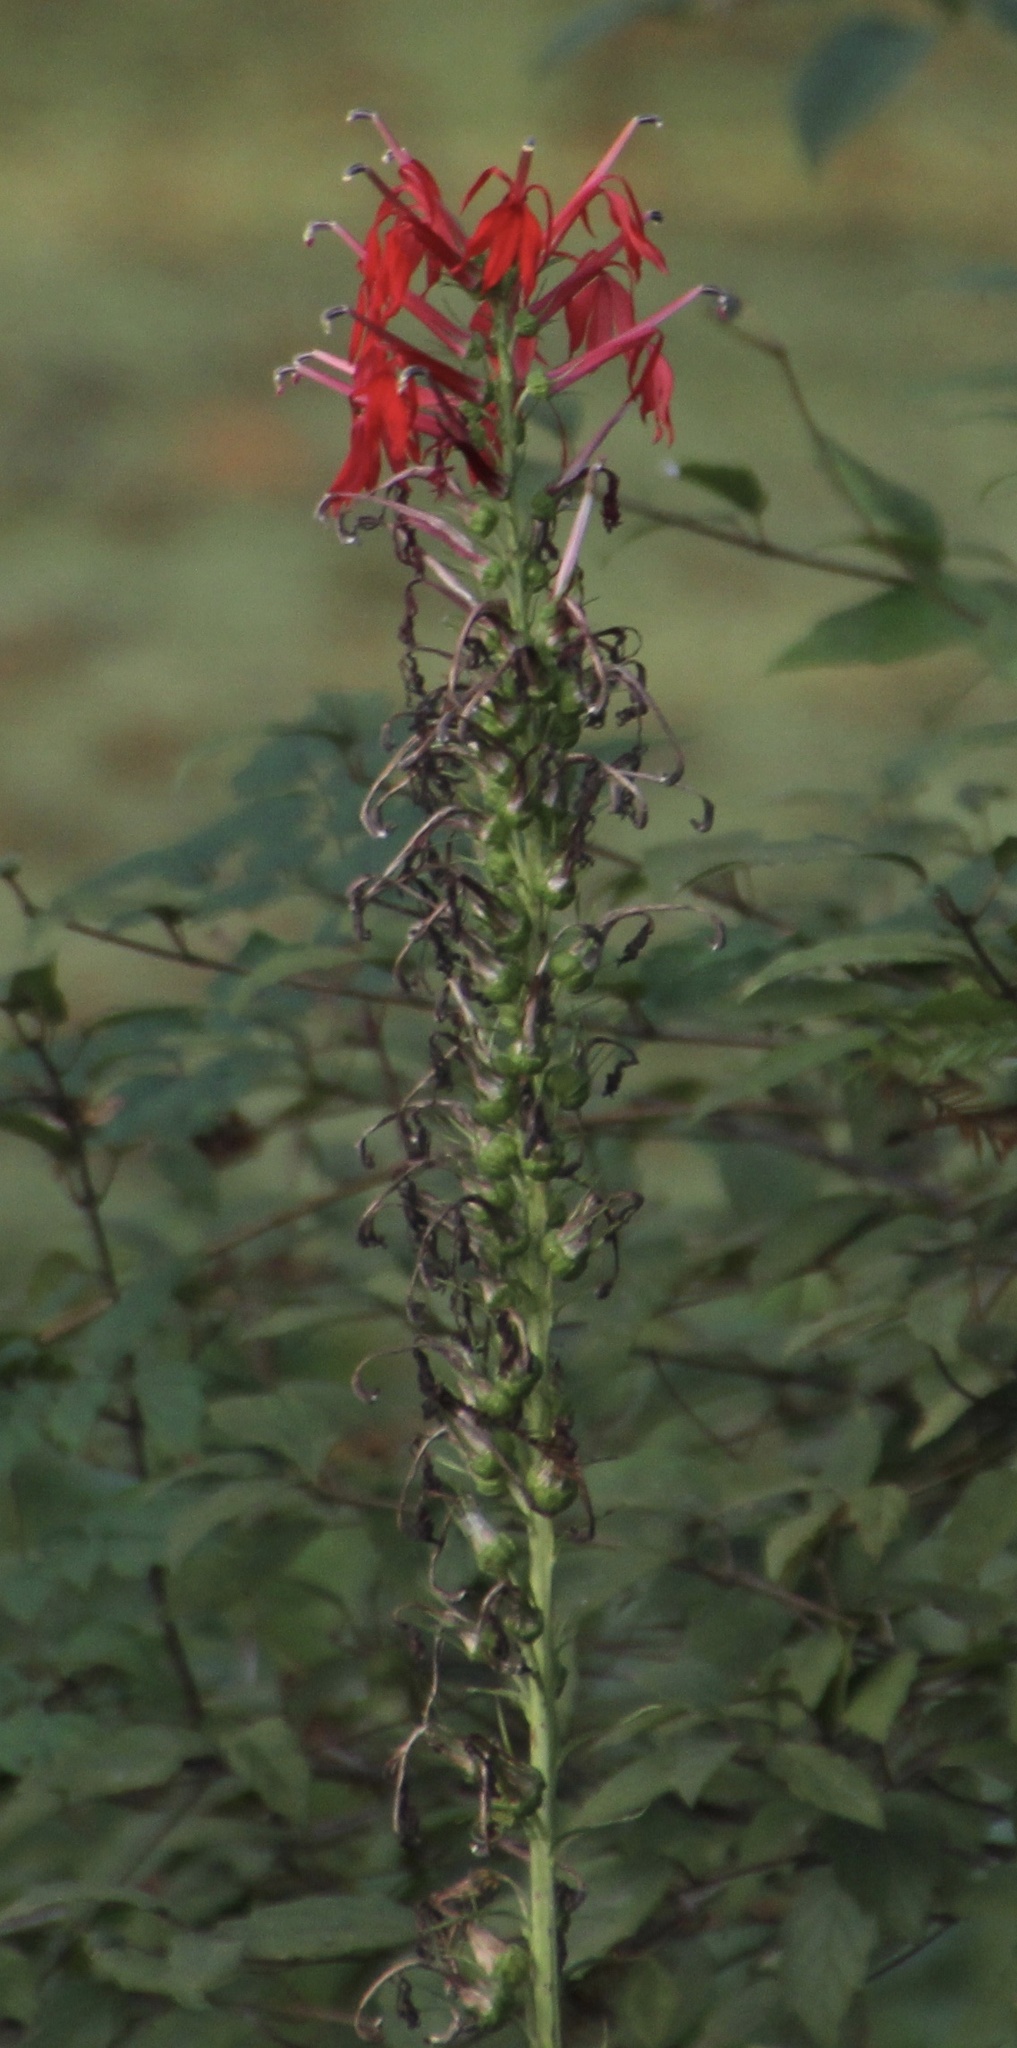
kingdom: Plantae
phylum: Tracheophyta
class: Magnoliopsida
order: Asterales
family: Campanulaceae
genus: Lobelia
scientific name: Lobelia cardinalis
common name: Cardinal flower
